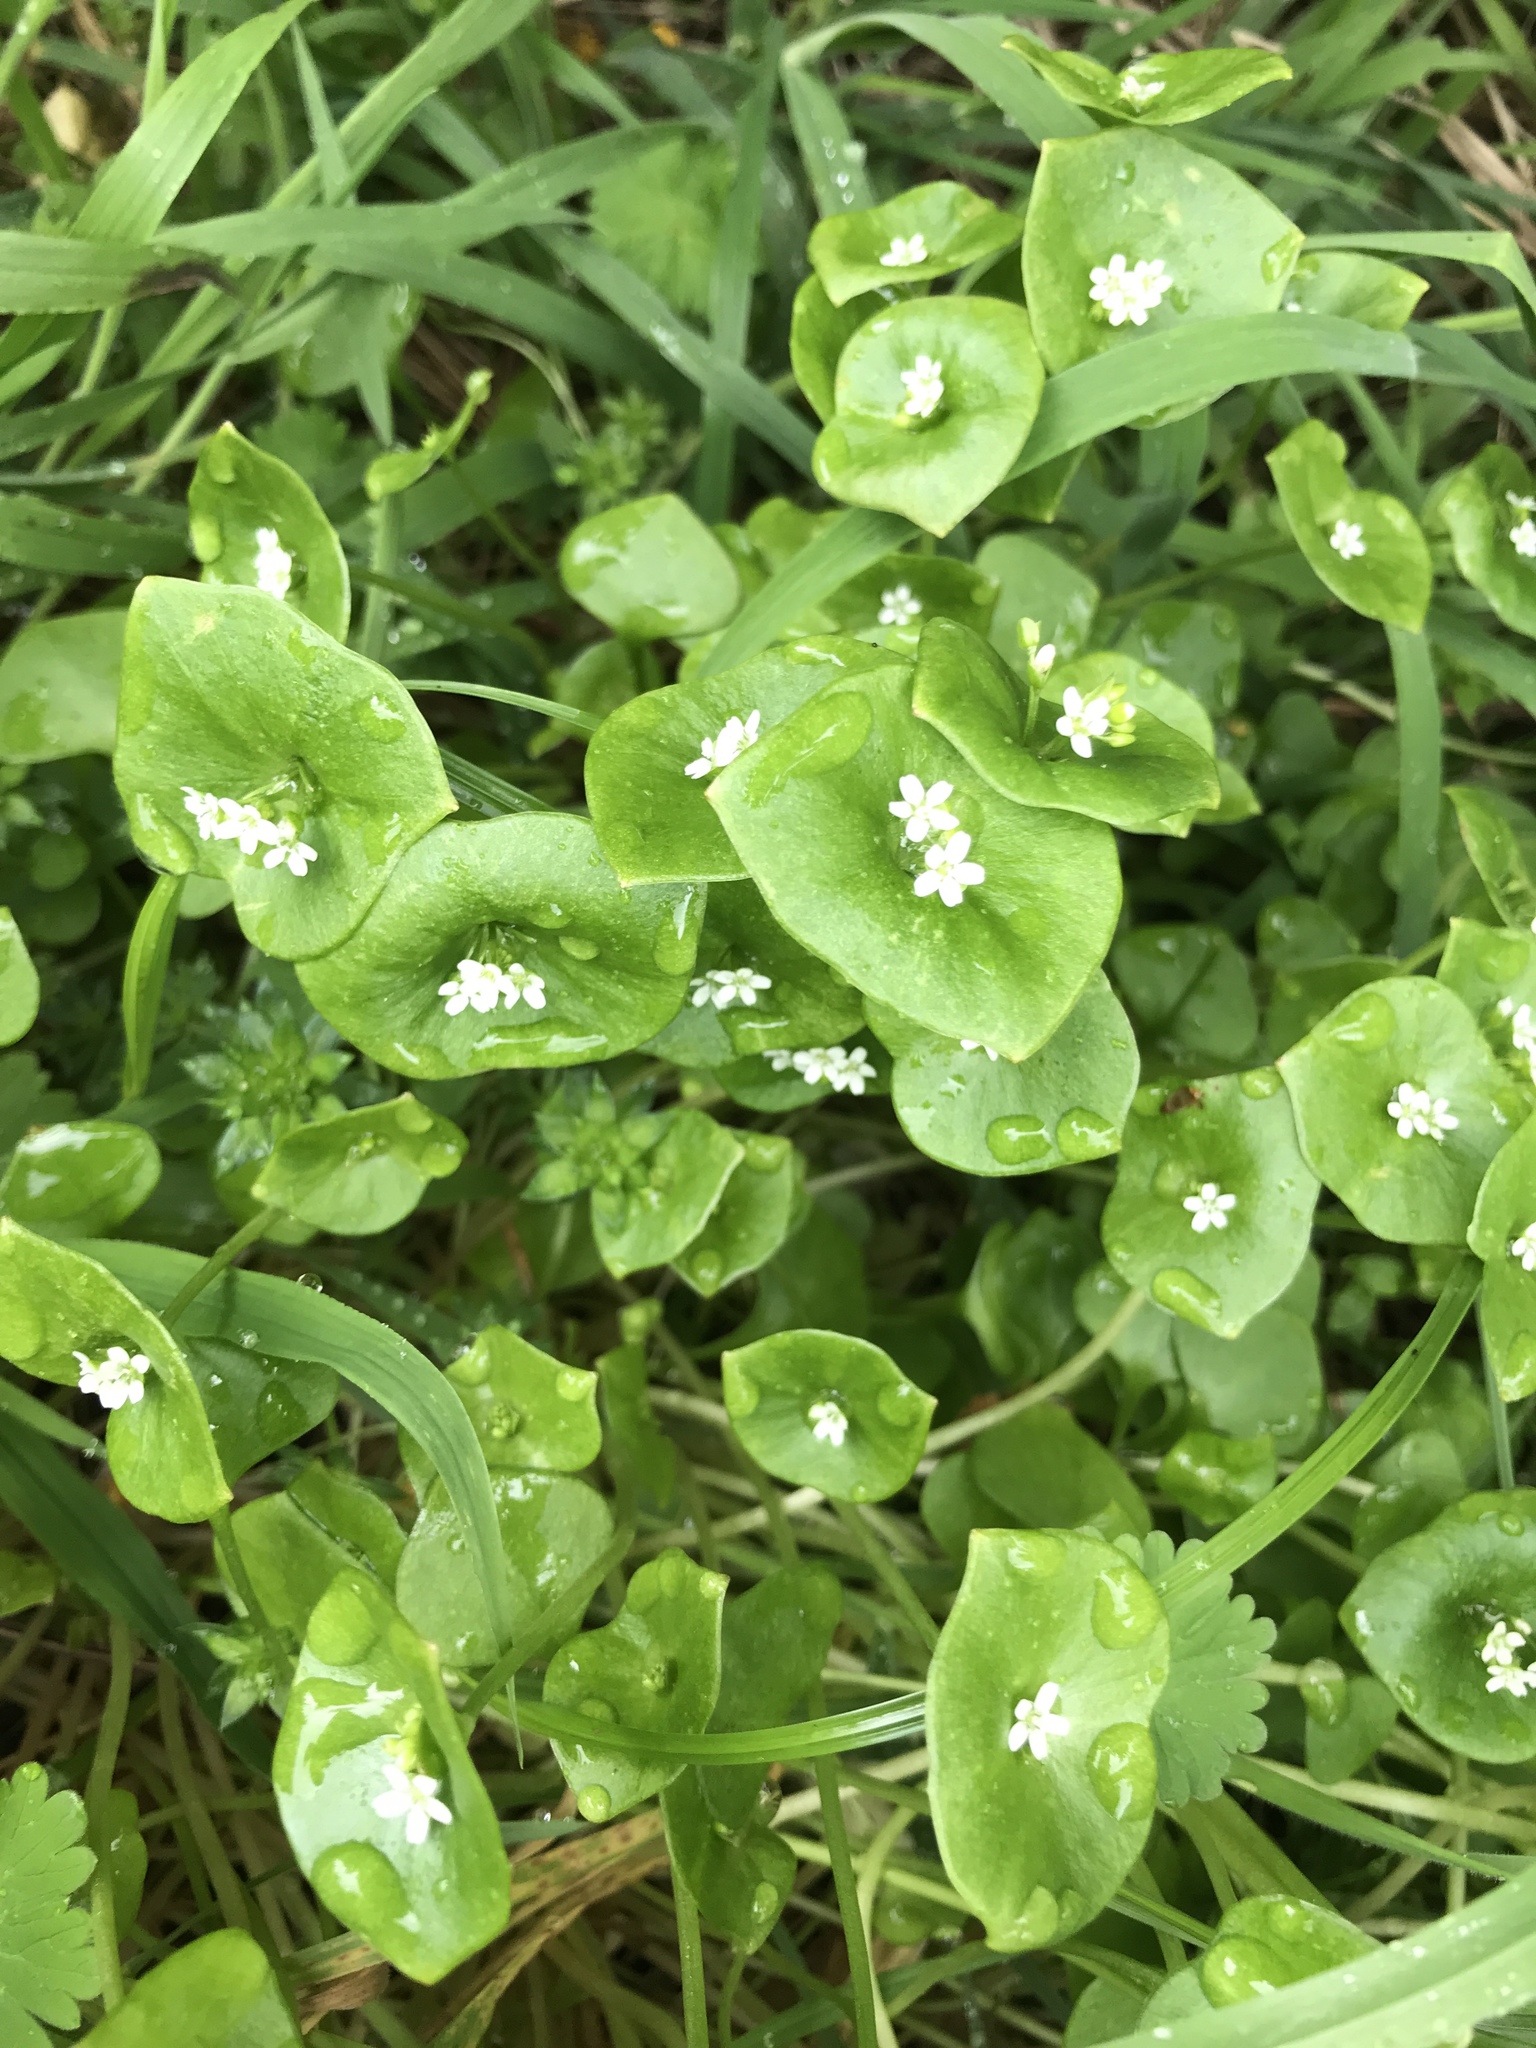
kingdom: Plantae
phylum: Tracheophyta
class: Magnoliopsida
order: Caryophyllales
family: Montiaceae
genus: Claytonia
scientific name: Claytonia perfoliata
